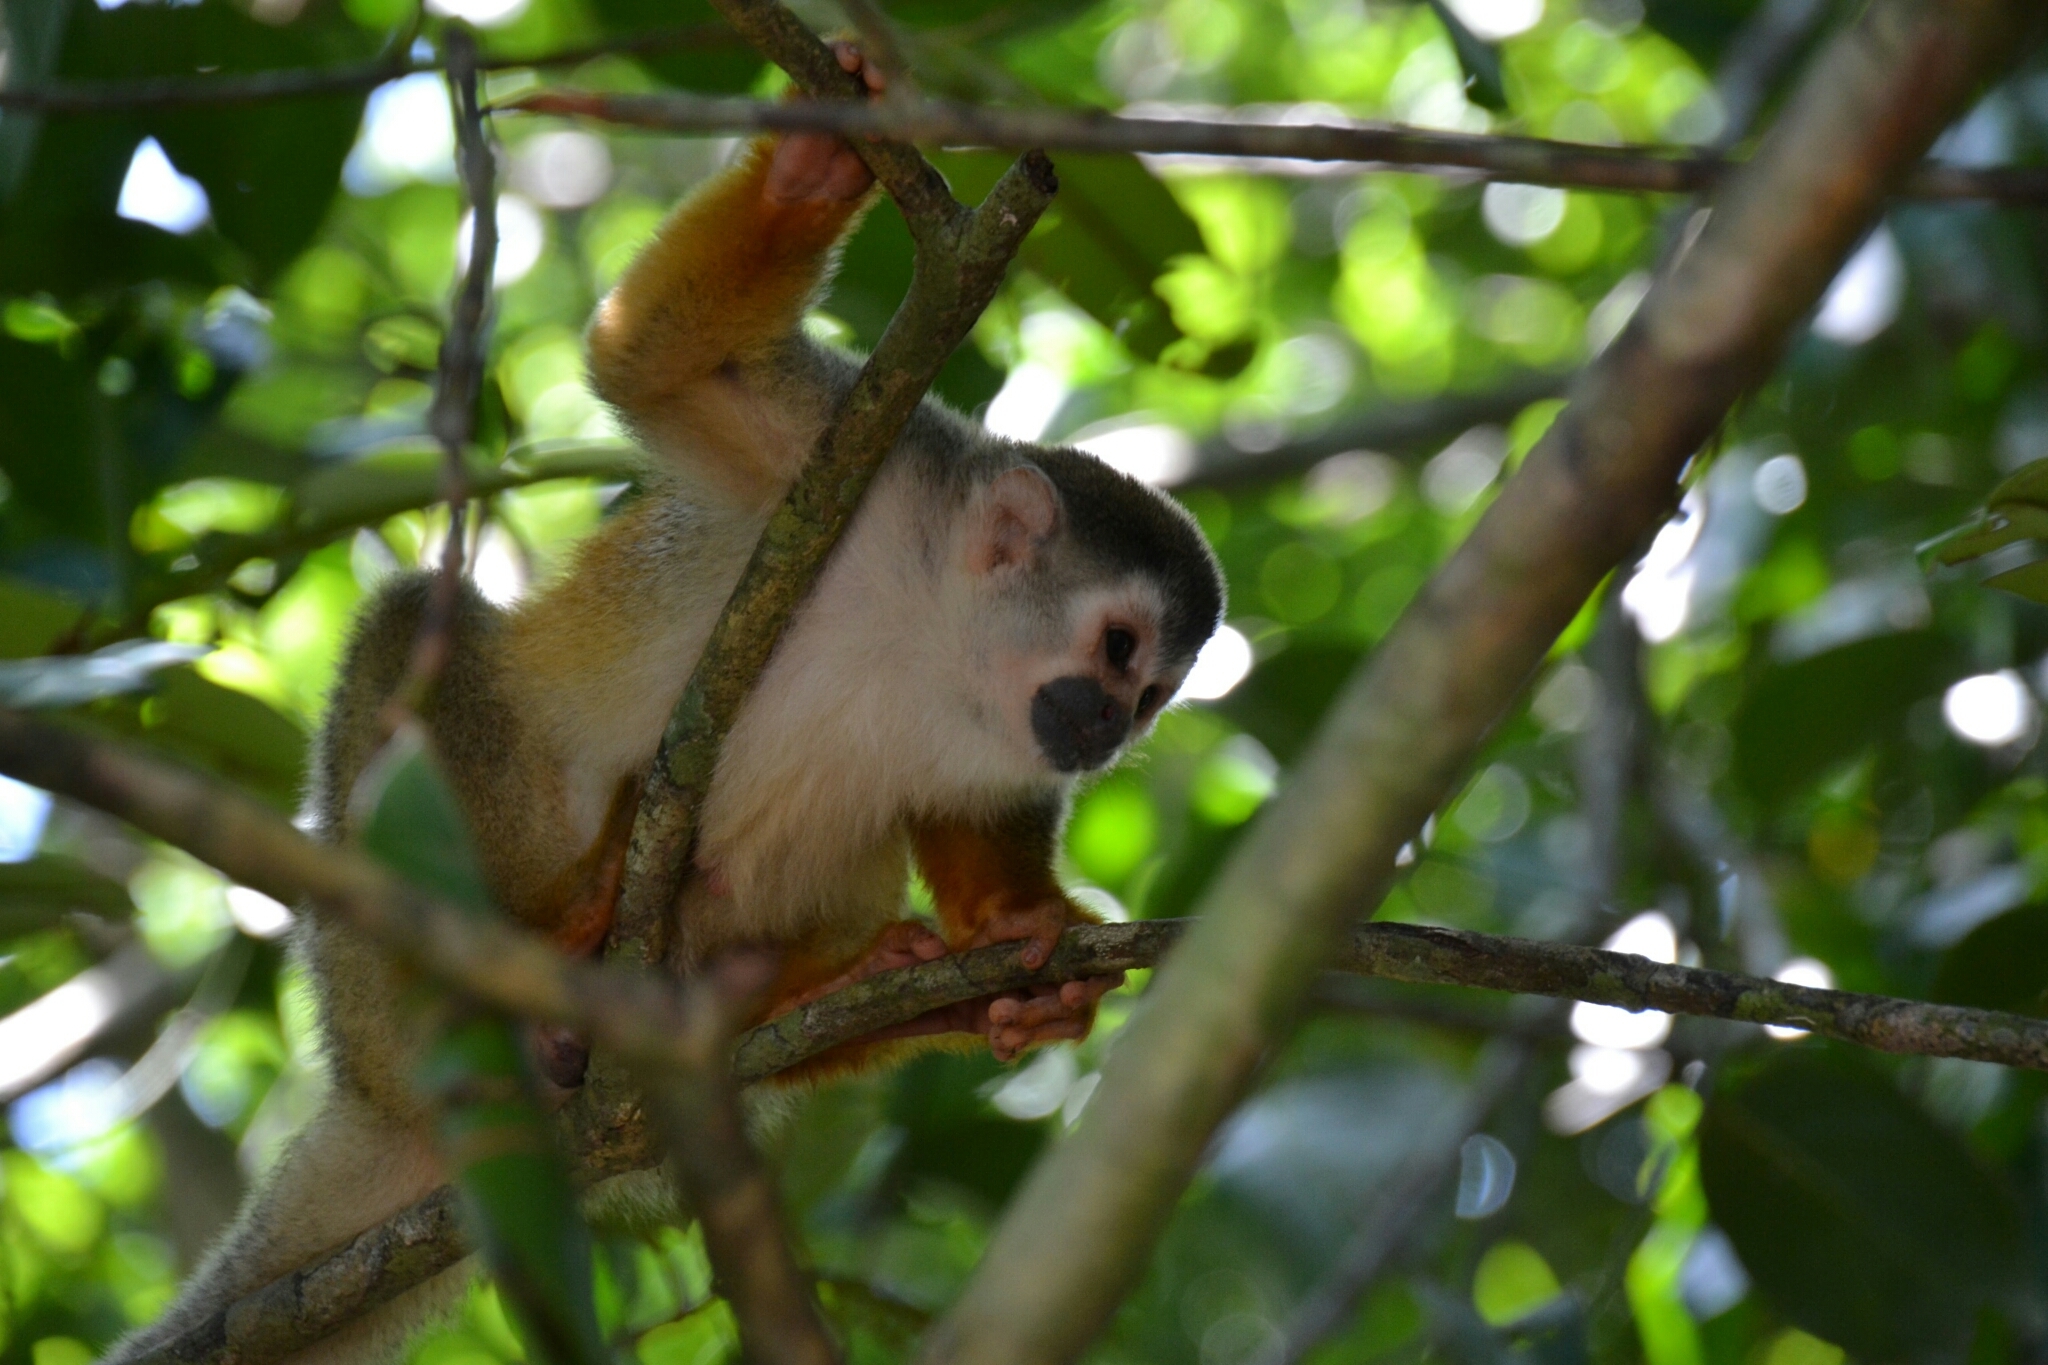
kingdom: Animalia
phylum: Chordata
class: Mammalia
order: Primates
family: Cebidae
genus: Saimiri
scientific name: Saimiri oerstedii
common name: Central american squirrel monkey
